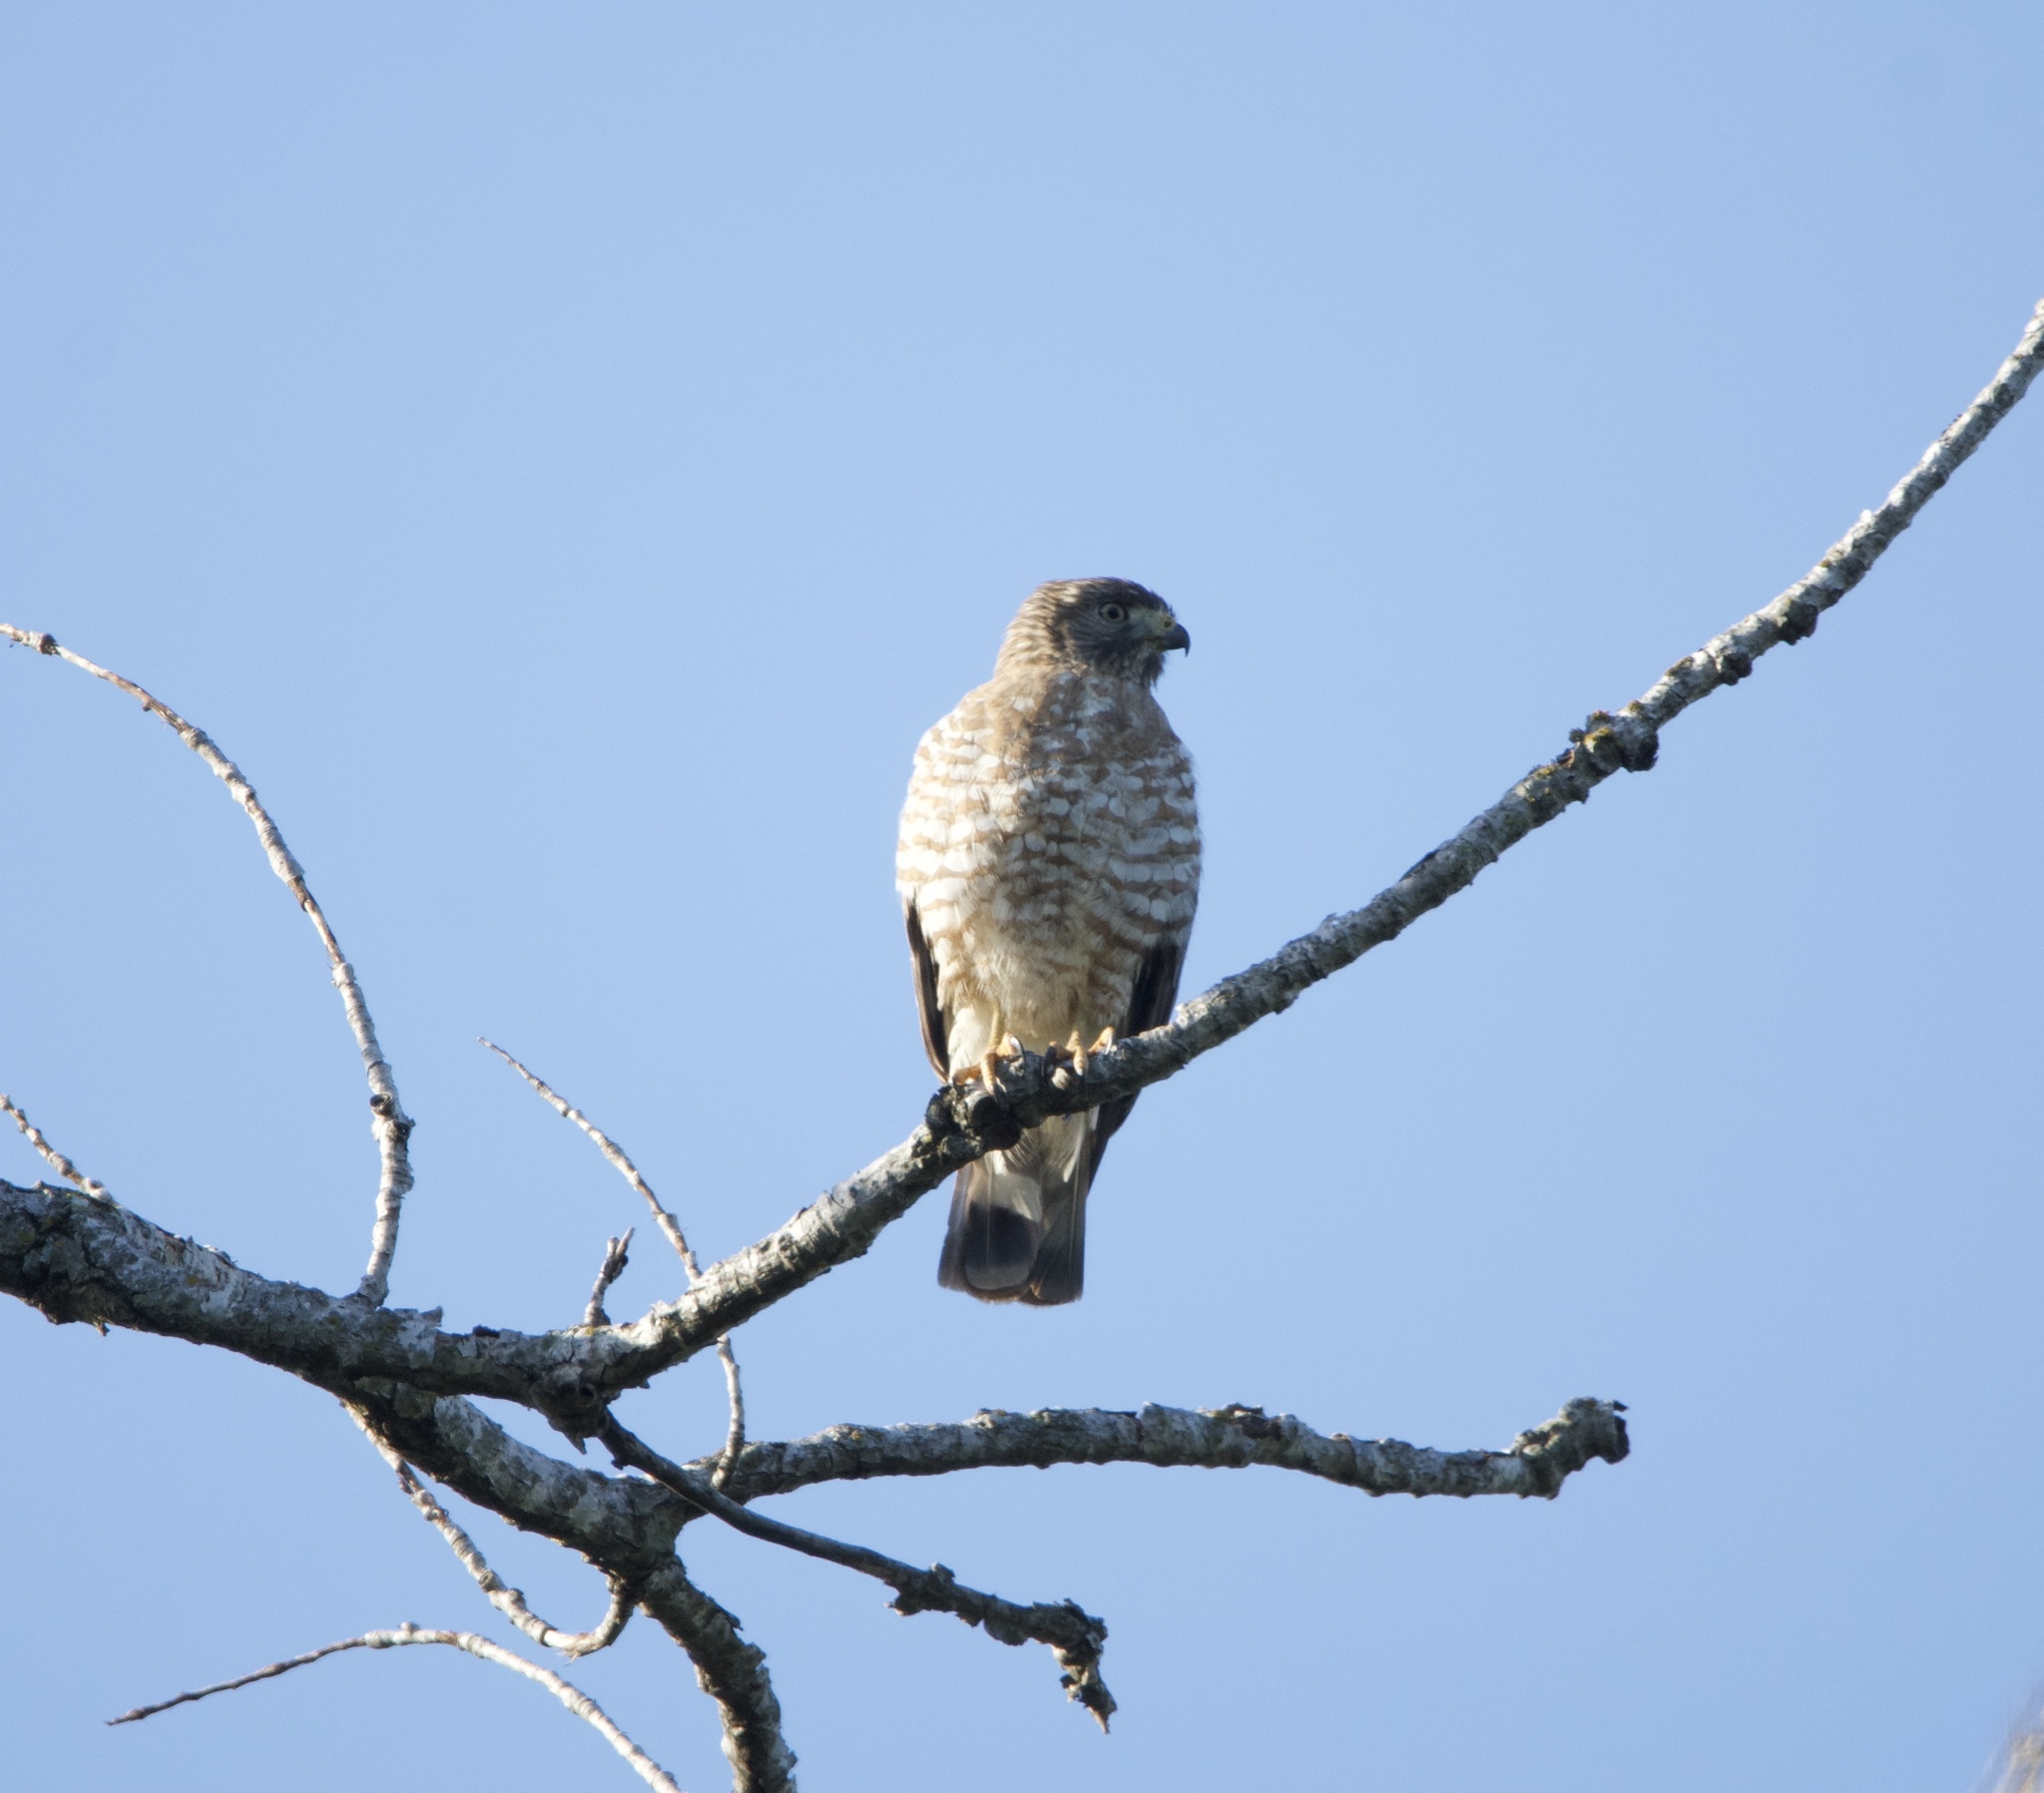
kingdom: Animalia
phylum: Chordata
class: Aves
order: Accipitriformes
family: Accipitridae
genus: Buteo
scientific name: Buteo platypterus
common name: Broad-winged hawk
